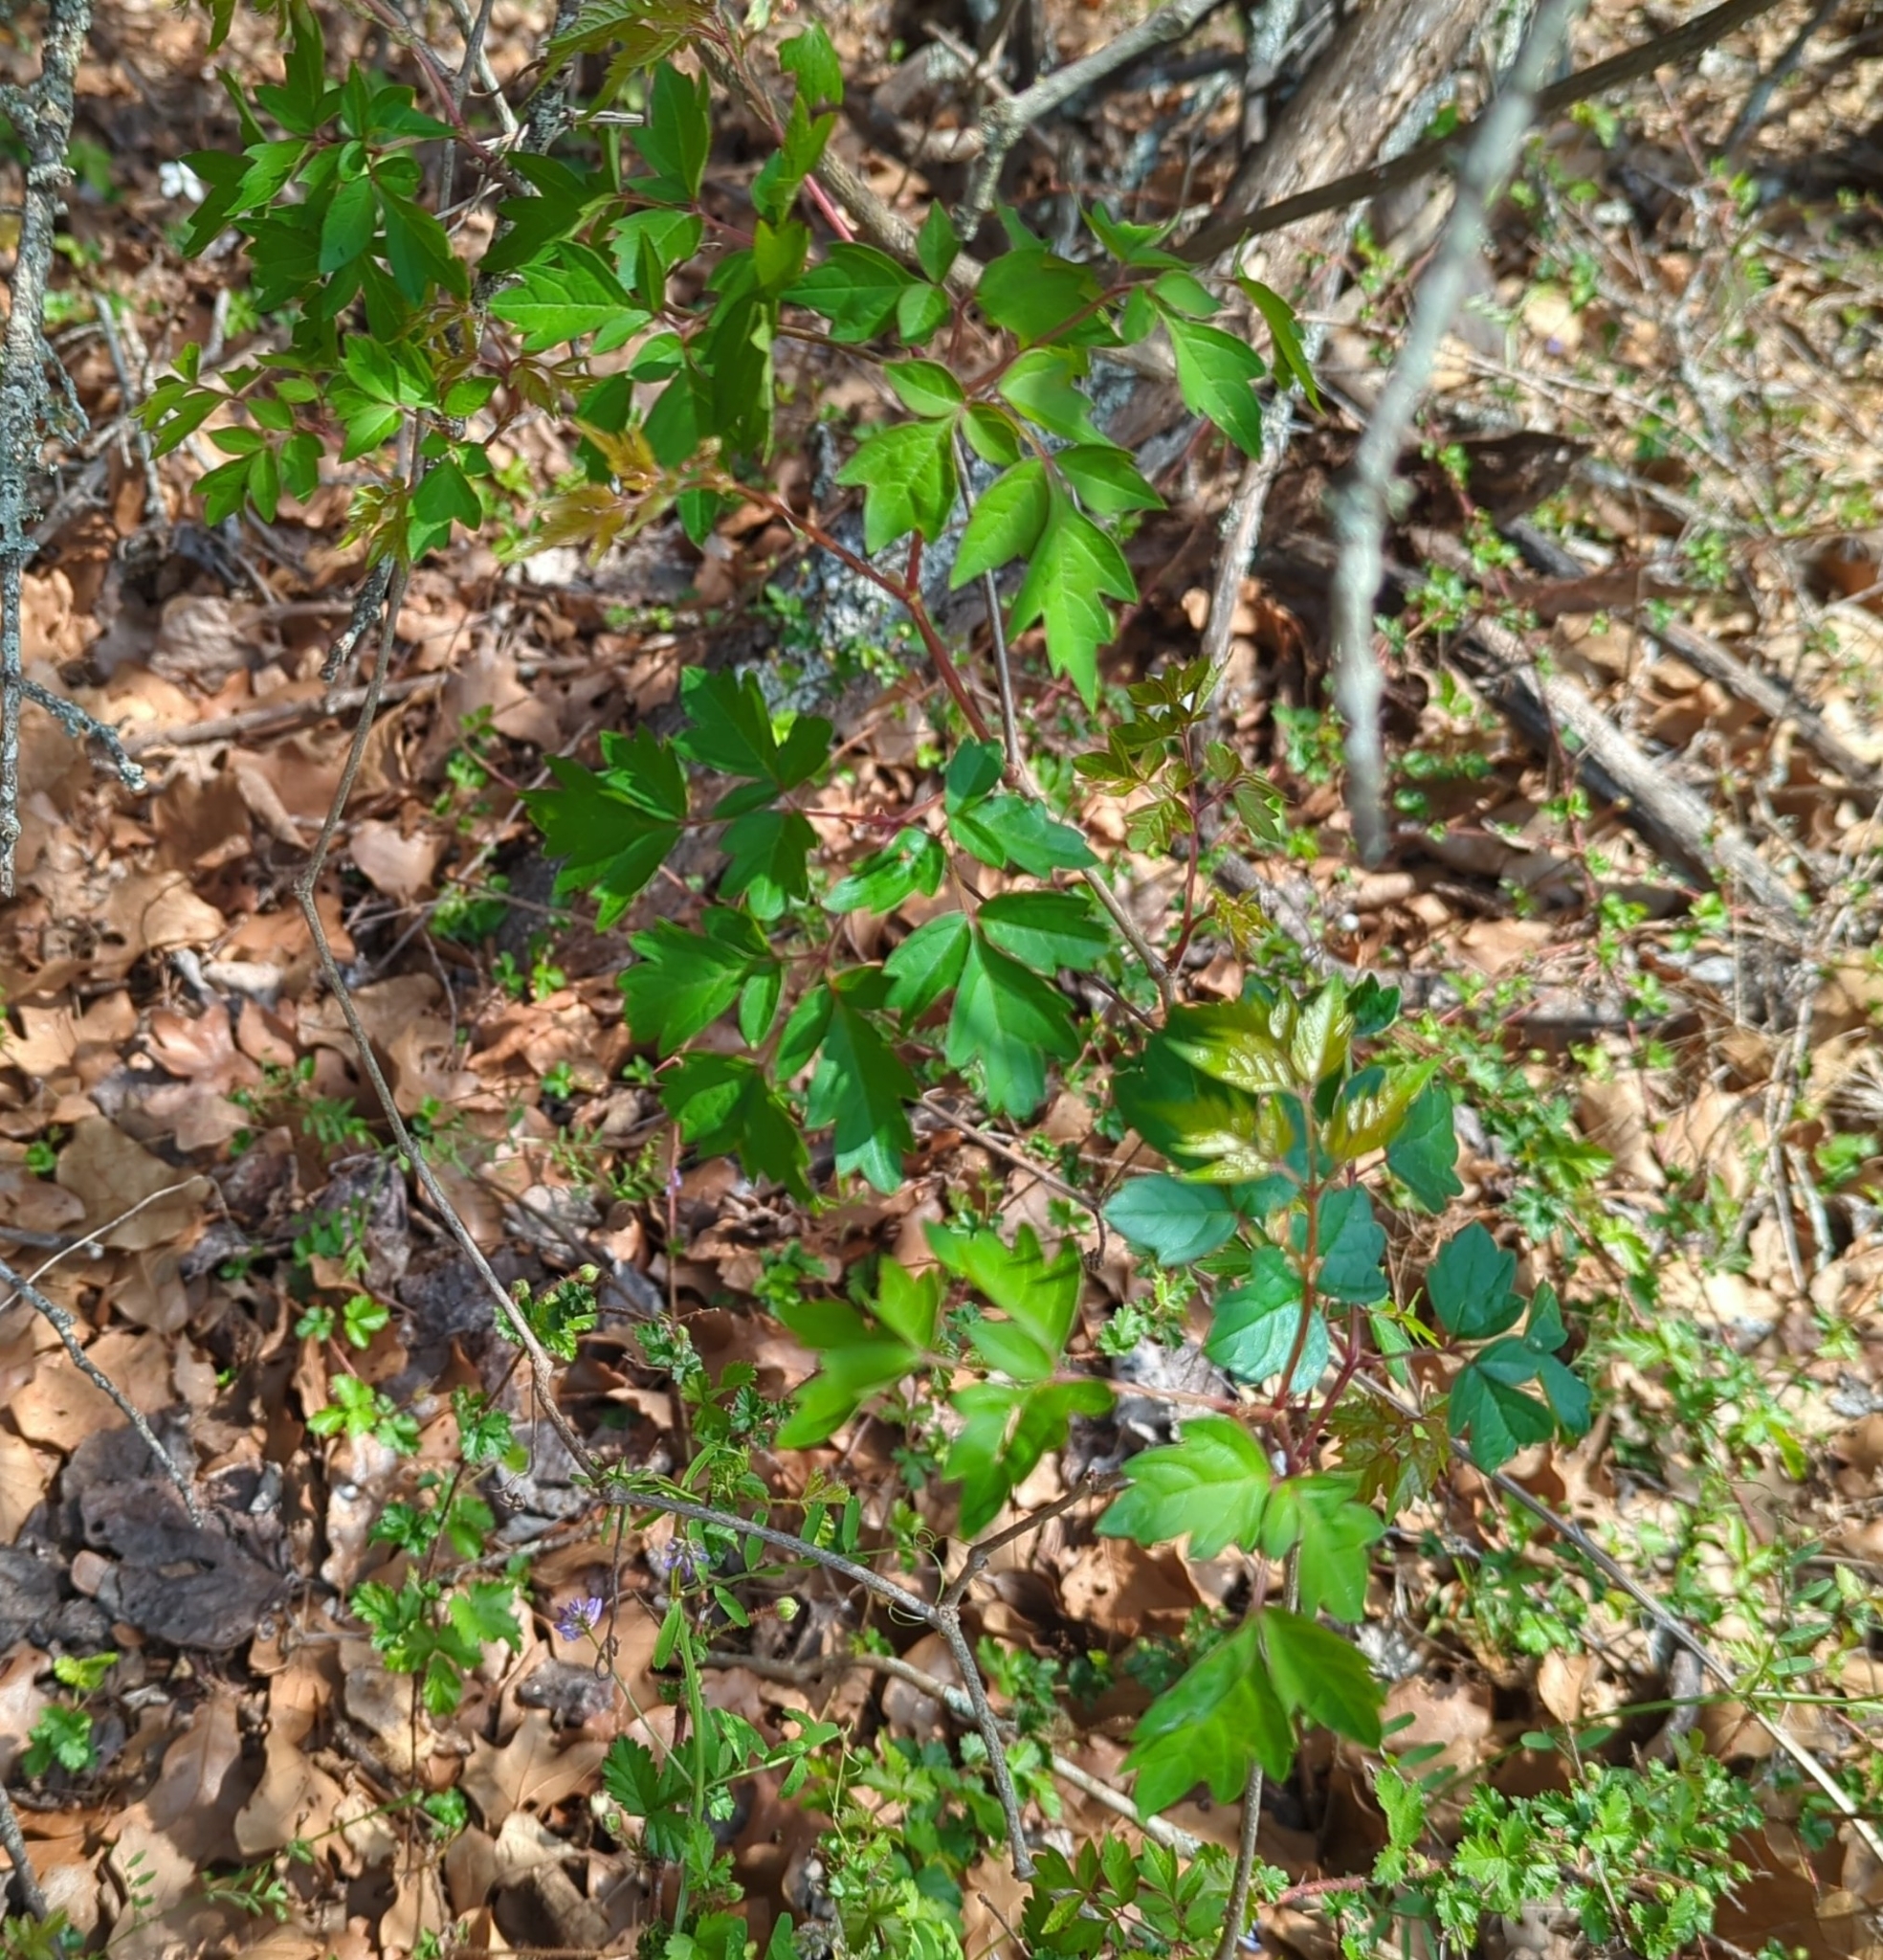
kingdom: Plantae
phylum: Tracheophyta
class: Magnoliopsida
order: Vitales
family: Vitaceae
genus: Nekemias
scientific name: Nekemias arborea
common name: Peppervine
